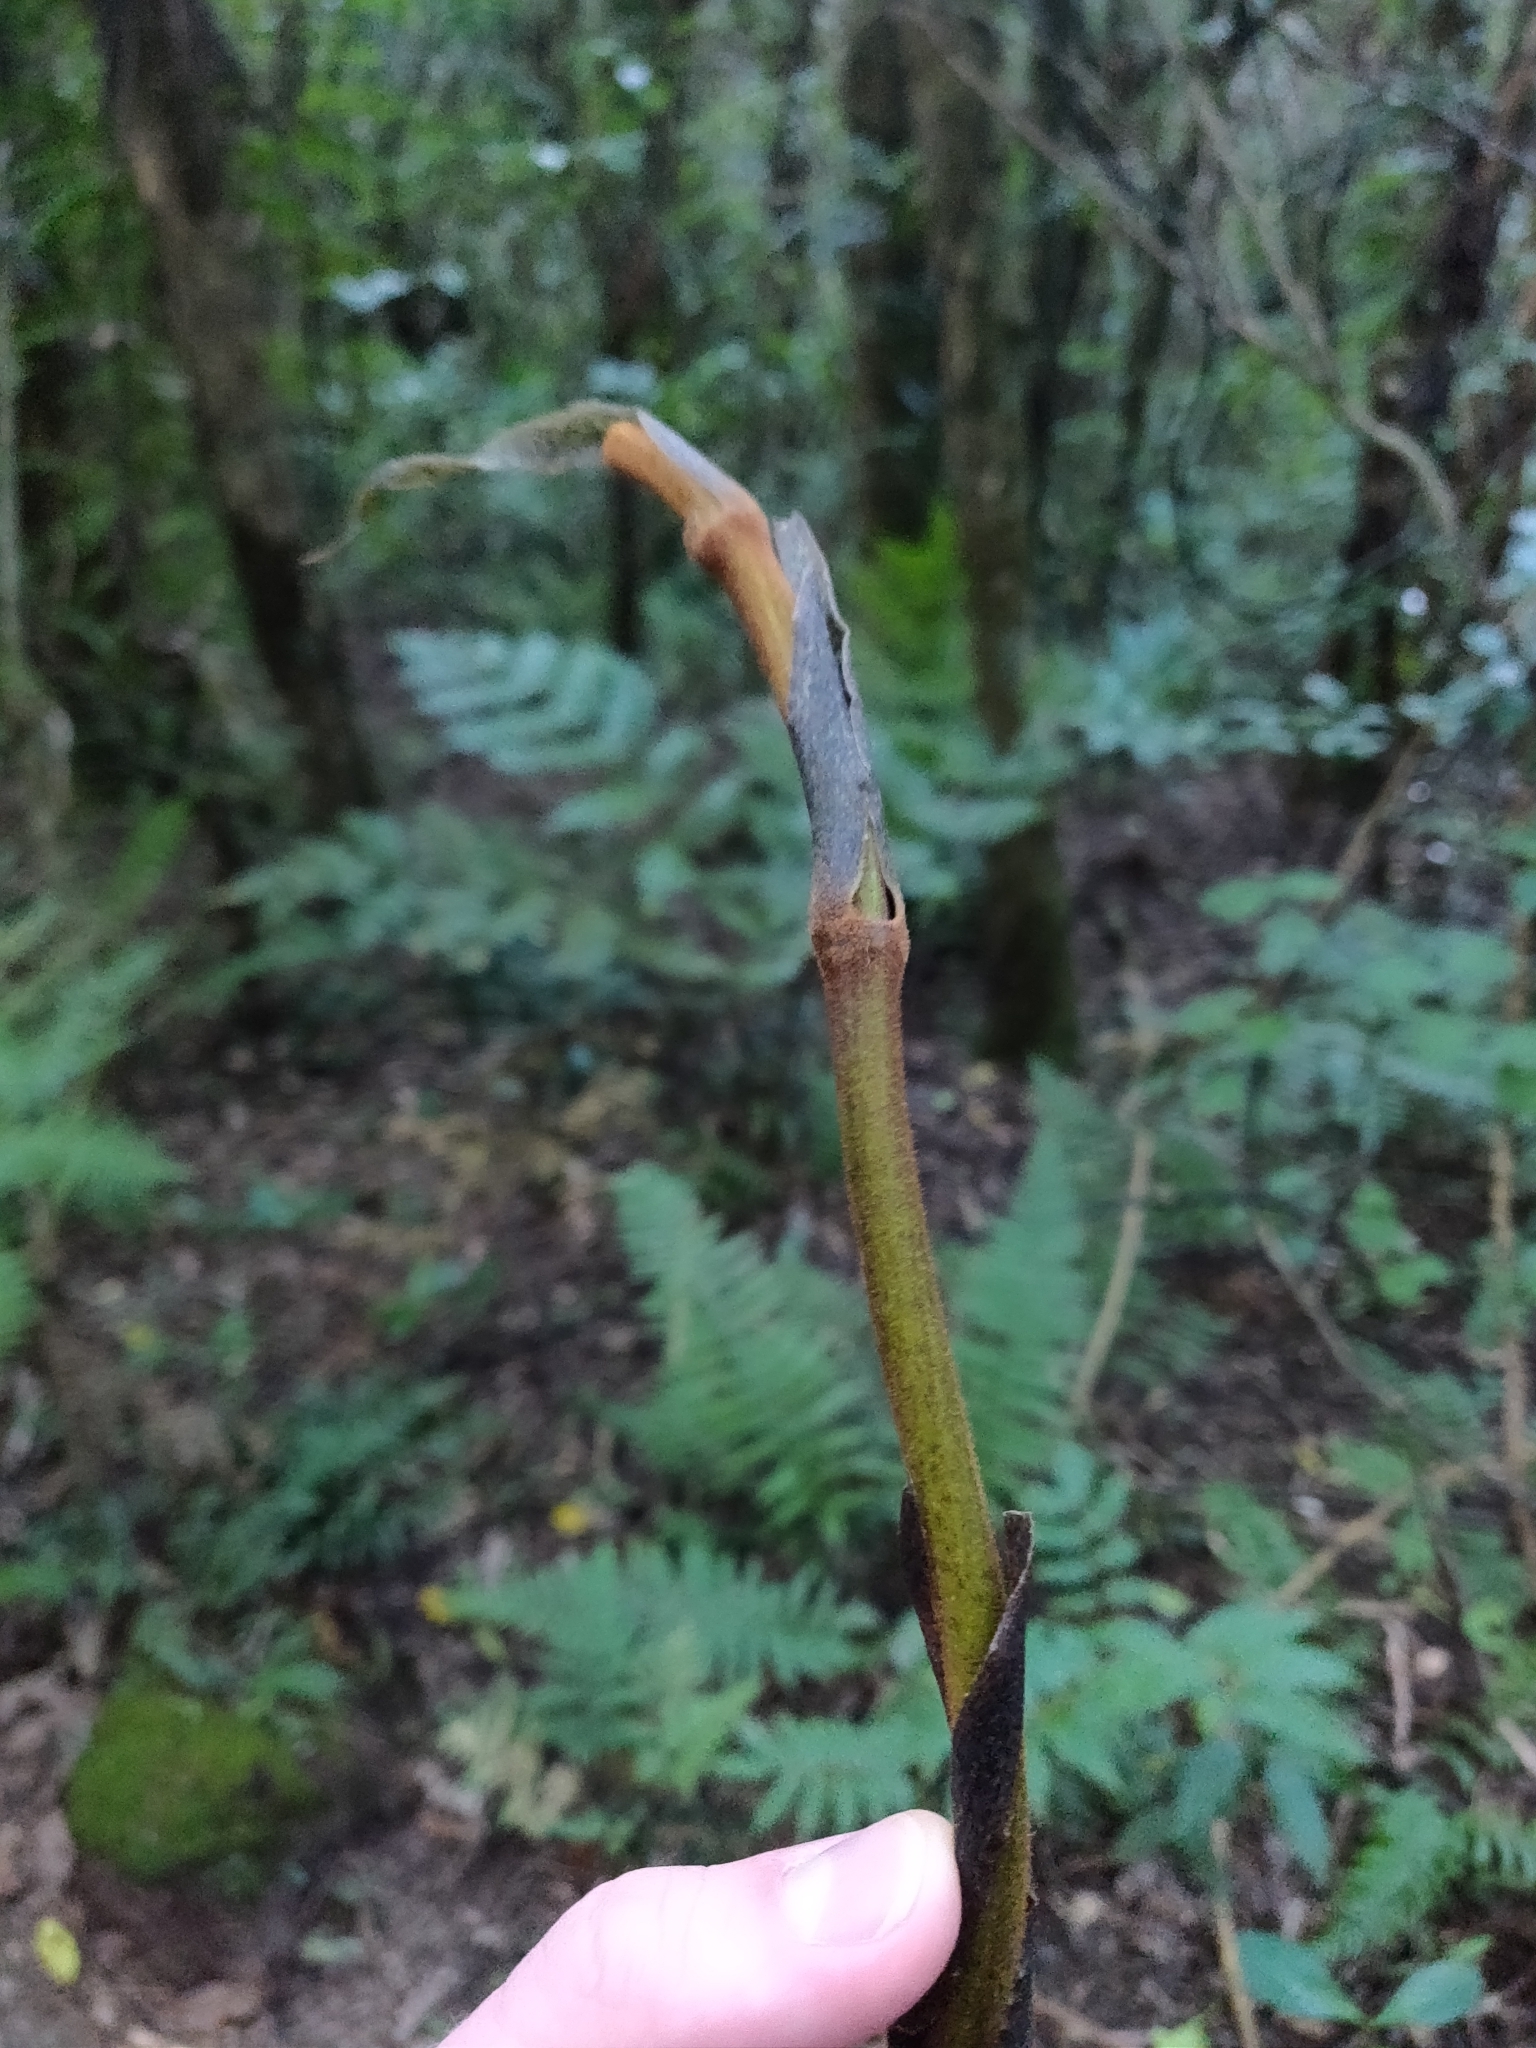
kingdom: Plantae
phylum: Tracheophyta
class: Liliopsida
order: Liliales
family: Ripogonaceae
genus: Ripogonum
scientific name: Ripogonum scandens
